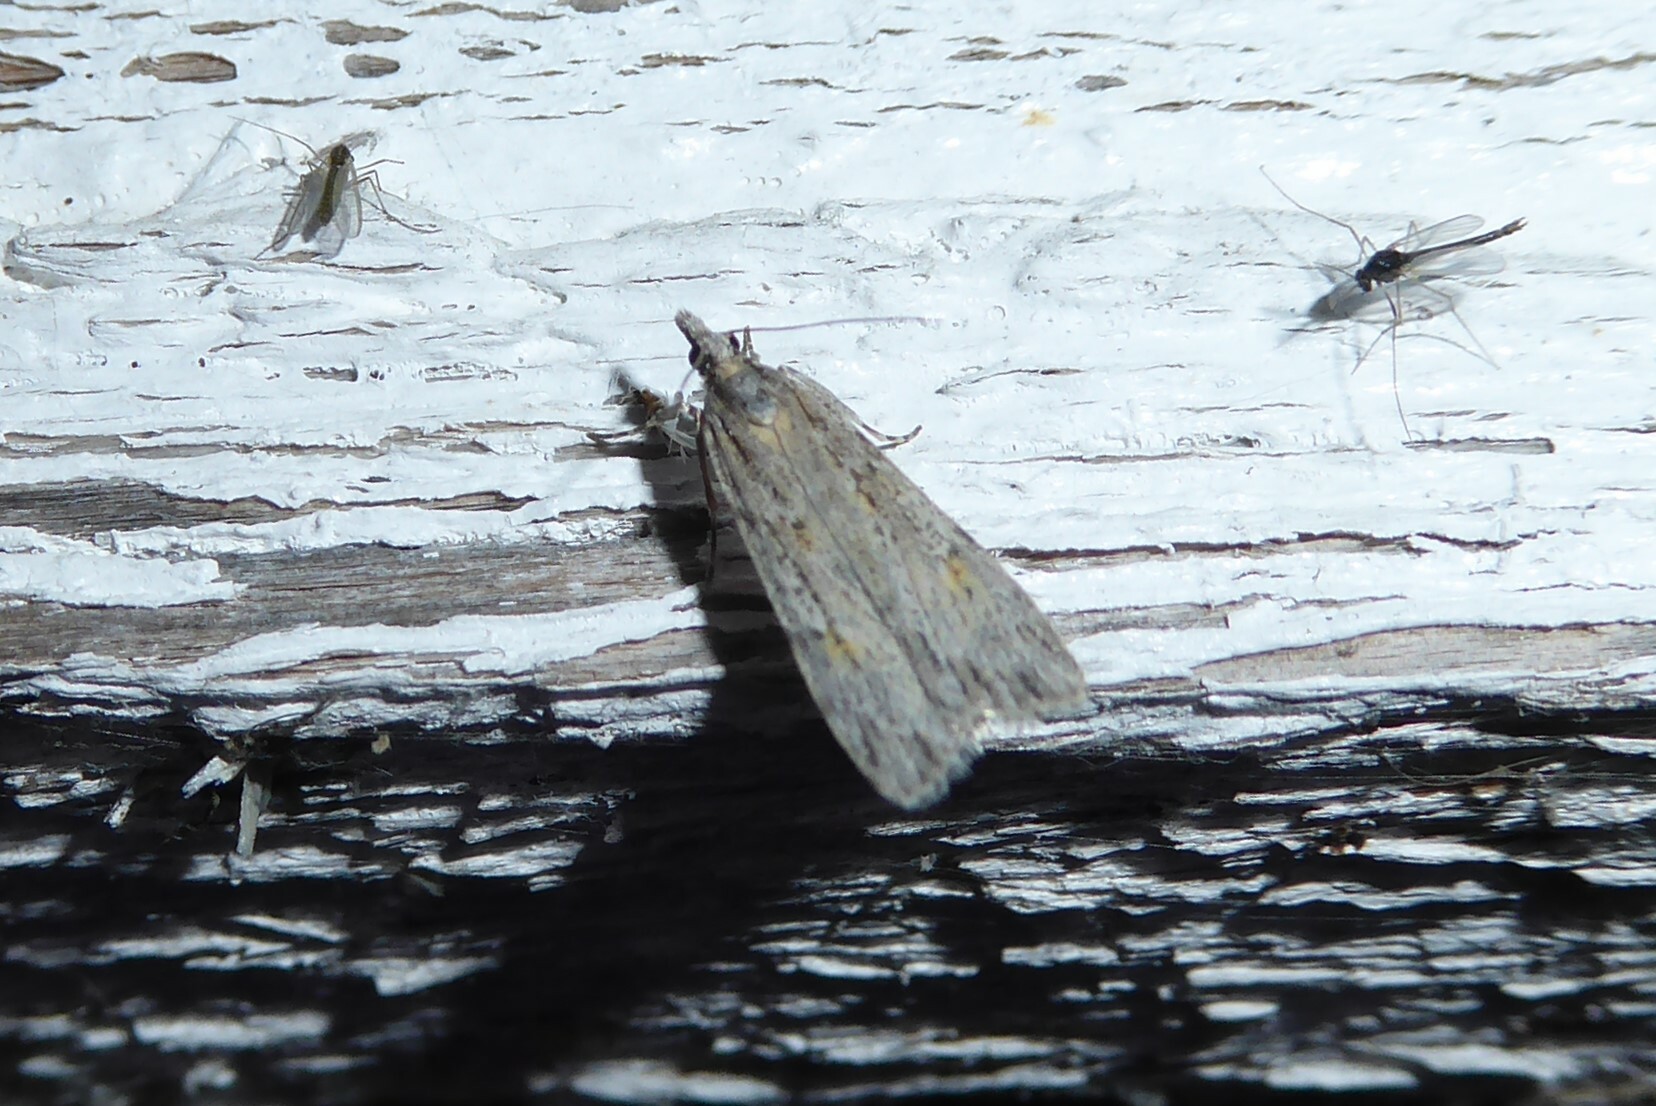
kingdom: Animalia
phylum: Arthropoda
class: Insecta
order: Lepidoptera
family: Crambidae
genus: Scoparia
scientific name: Scoparia chalicodes
